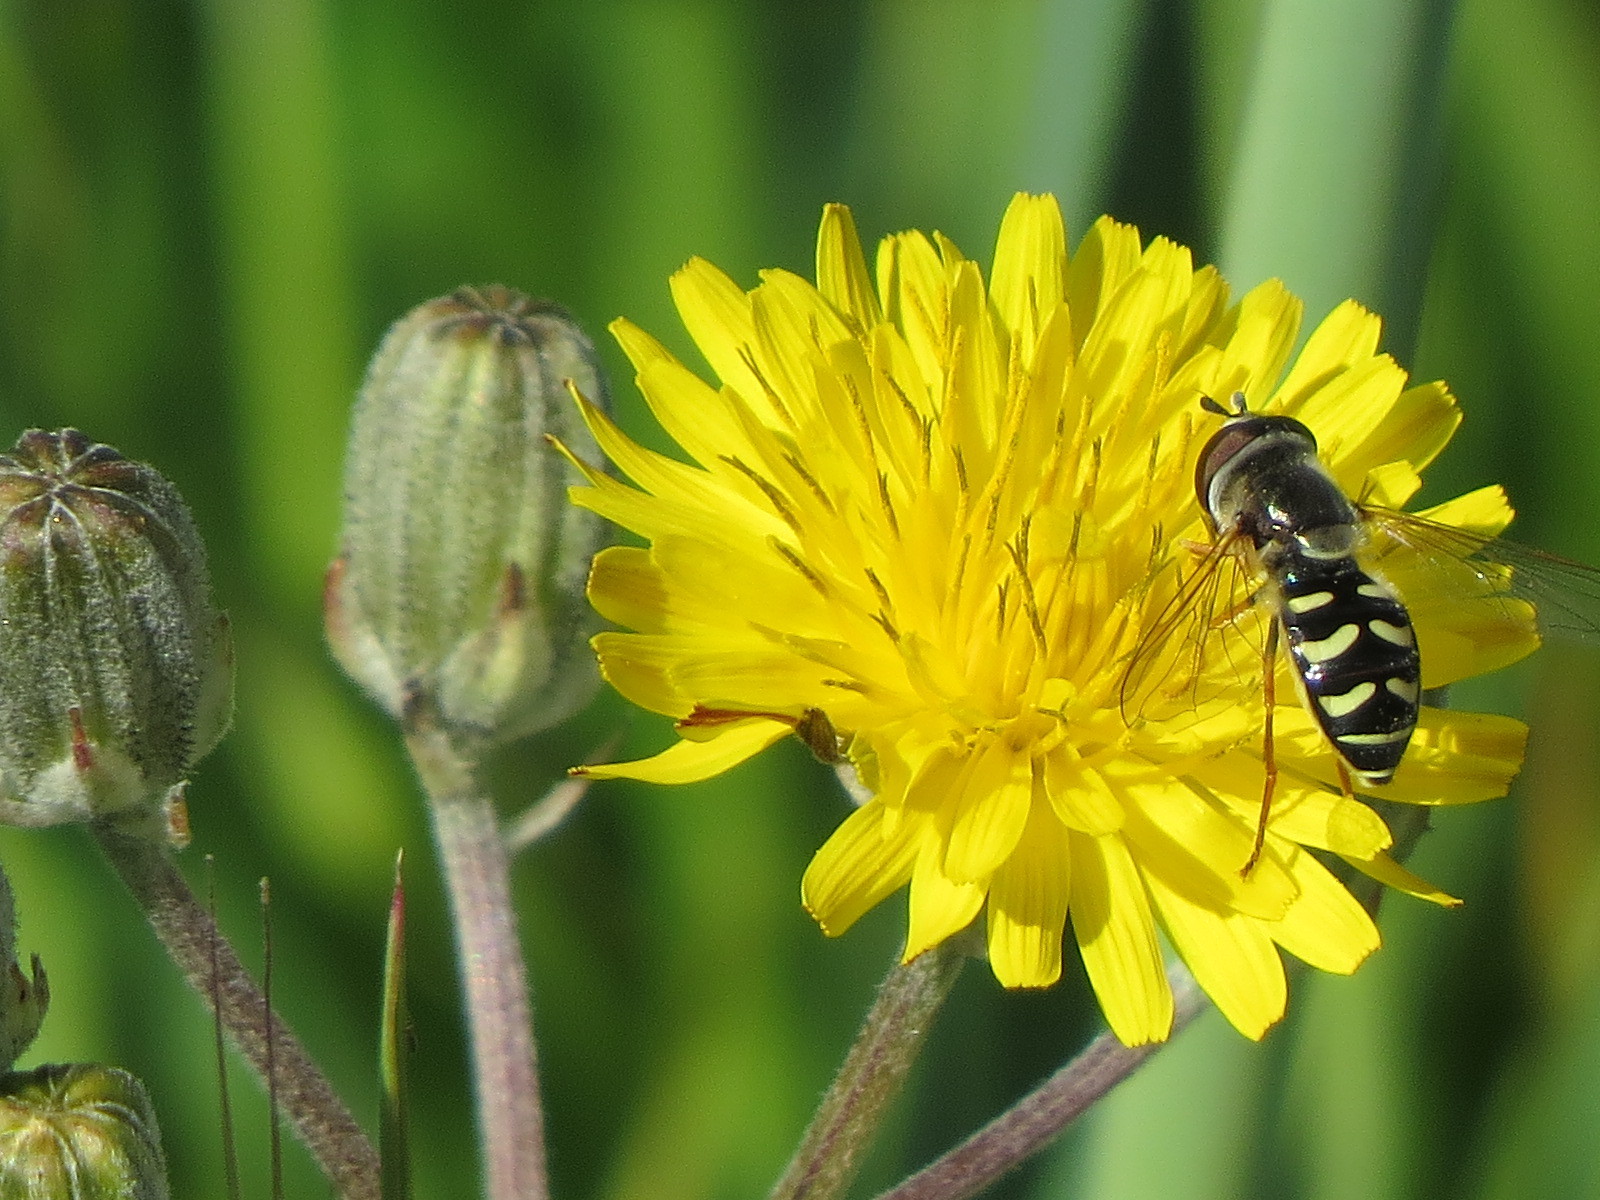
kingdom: Animalia
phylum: Arthropoda
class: Insecta
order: Diptera
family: Syrphidae
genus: Eupeodes
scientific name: Eupeodes volucris
